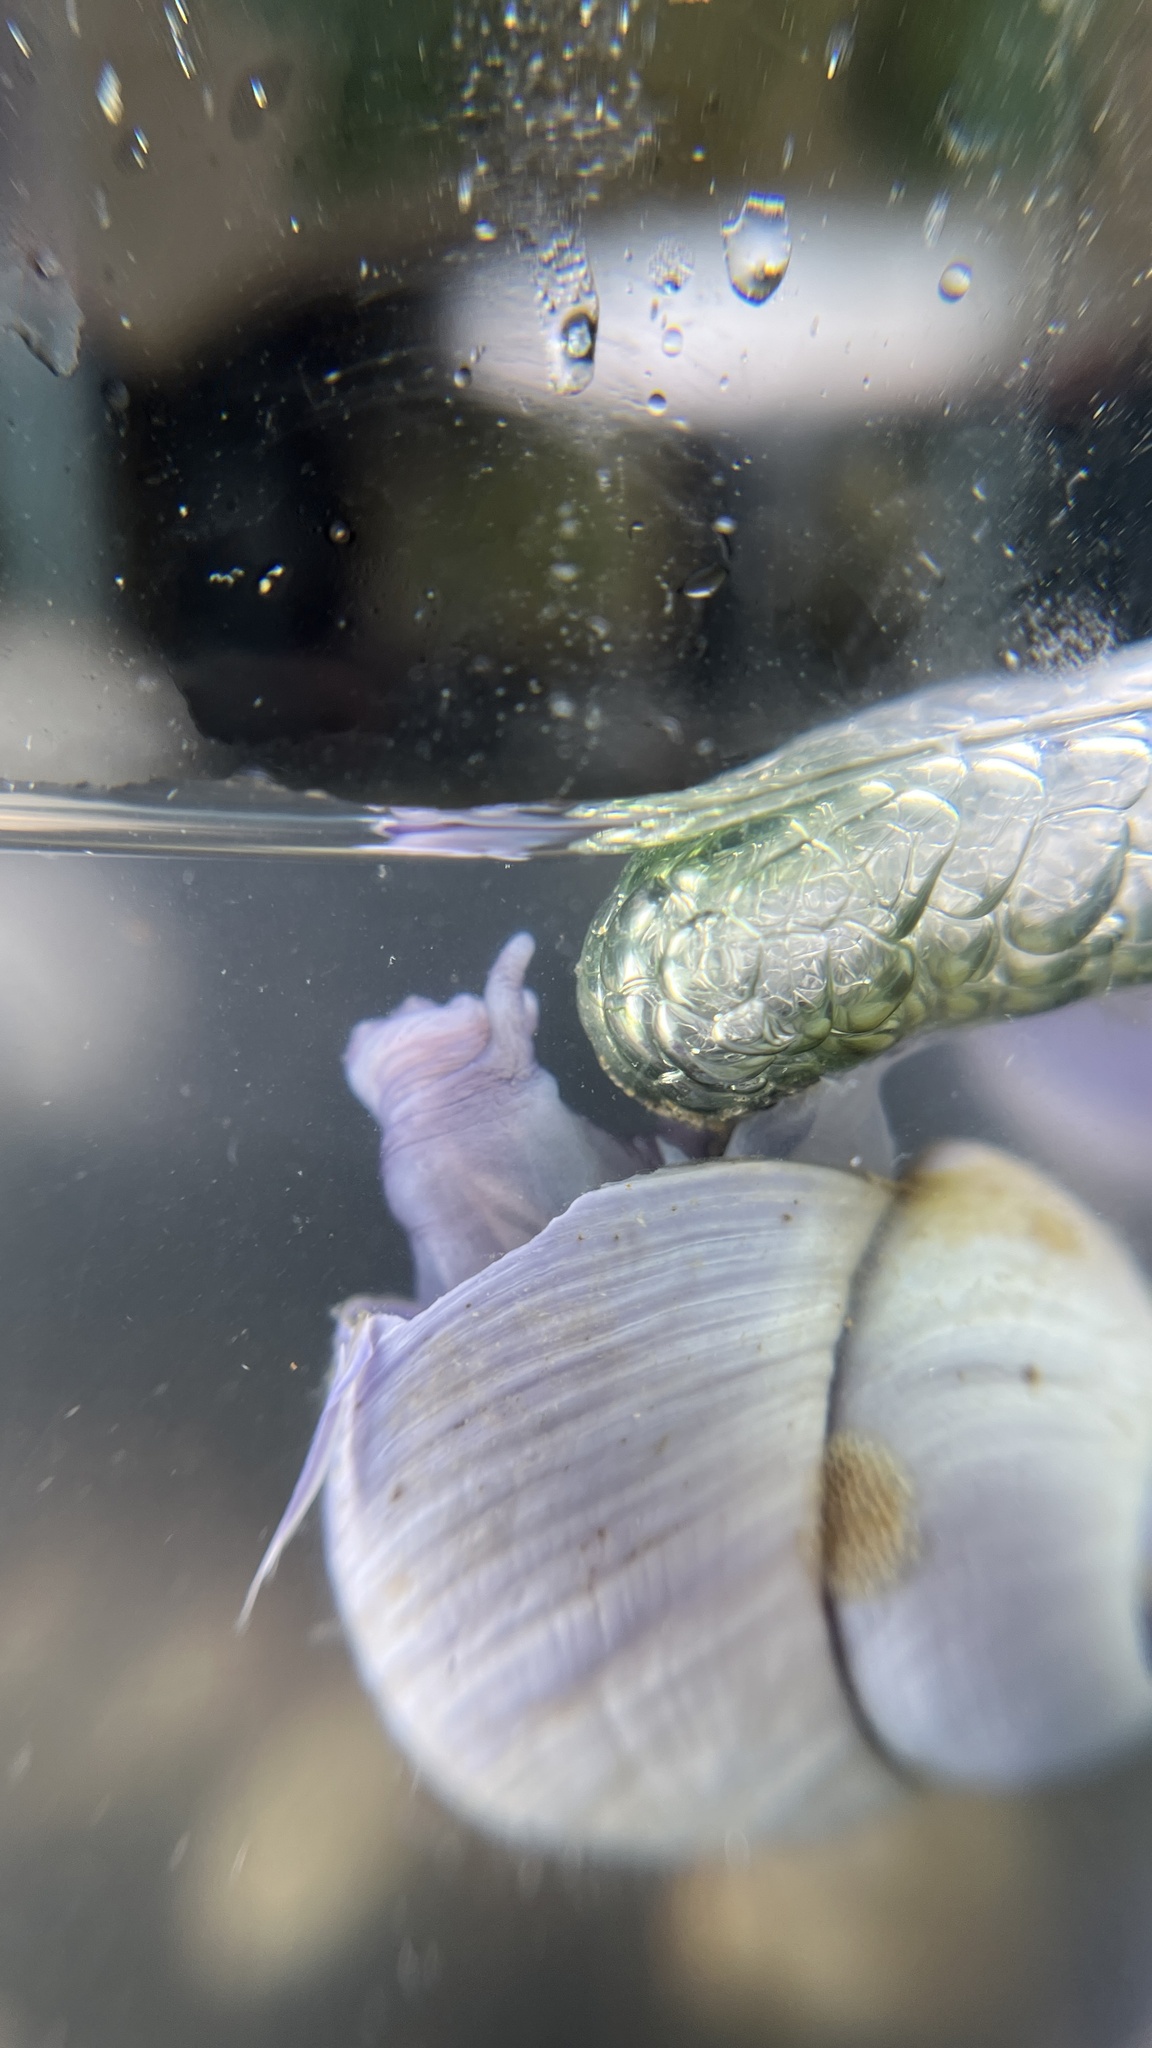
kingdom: Animalia
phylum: Mollusca
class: Gastropoda
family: Epitoniidae
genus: Janthina
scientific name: Janthina janthina
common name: Common janthina
